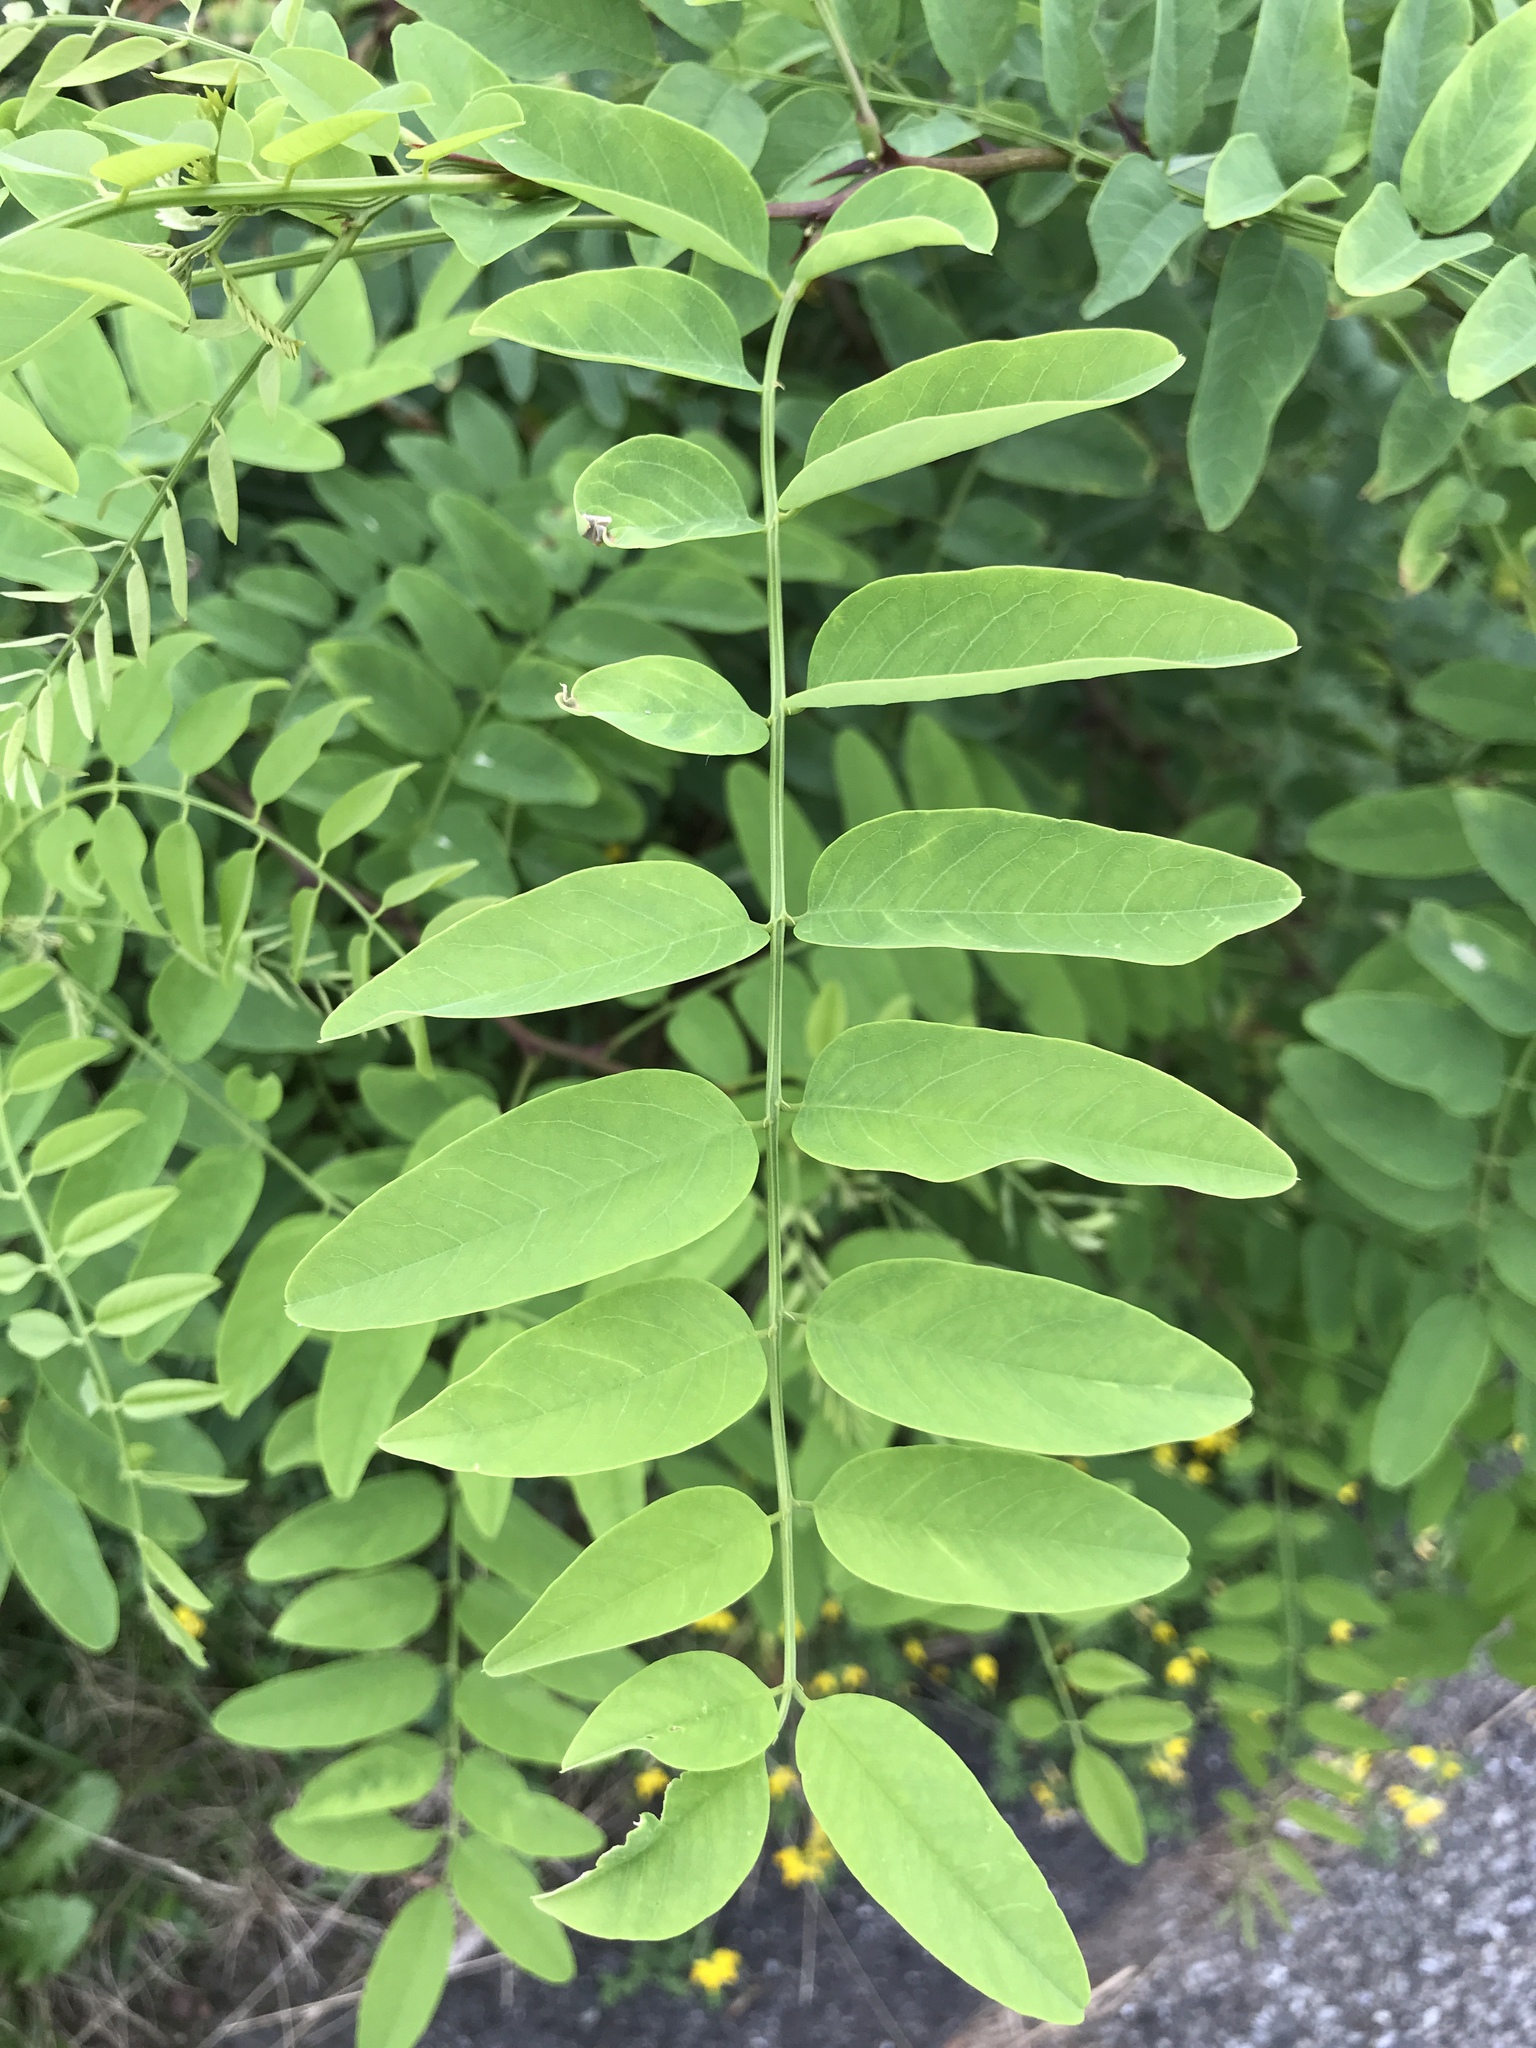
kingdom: Plantae
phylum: Tracheophyta
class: Magnoliopsida
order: Fabales
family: Fabaceae
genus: Robinia
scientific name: Robinia pseudoacacia
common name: Black locust
